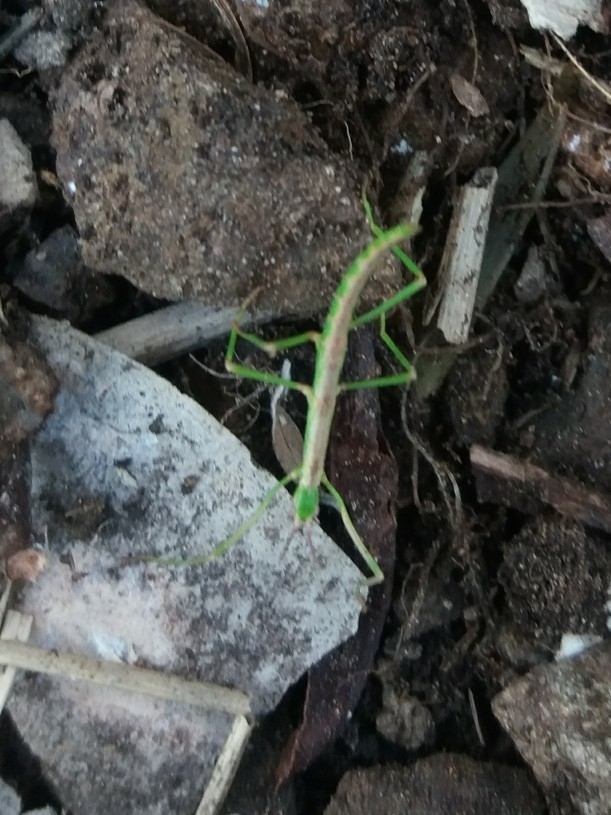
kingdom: Animalia
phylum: Arthropoda
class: Insecta
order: Phasmida
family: Phasmatidae
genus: Clitarchus
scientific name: Clitarchus hookeri
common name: Smooth stick insect
